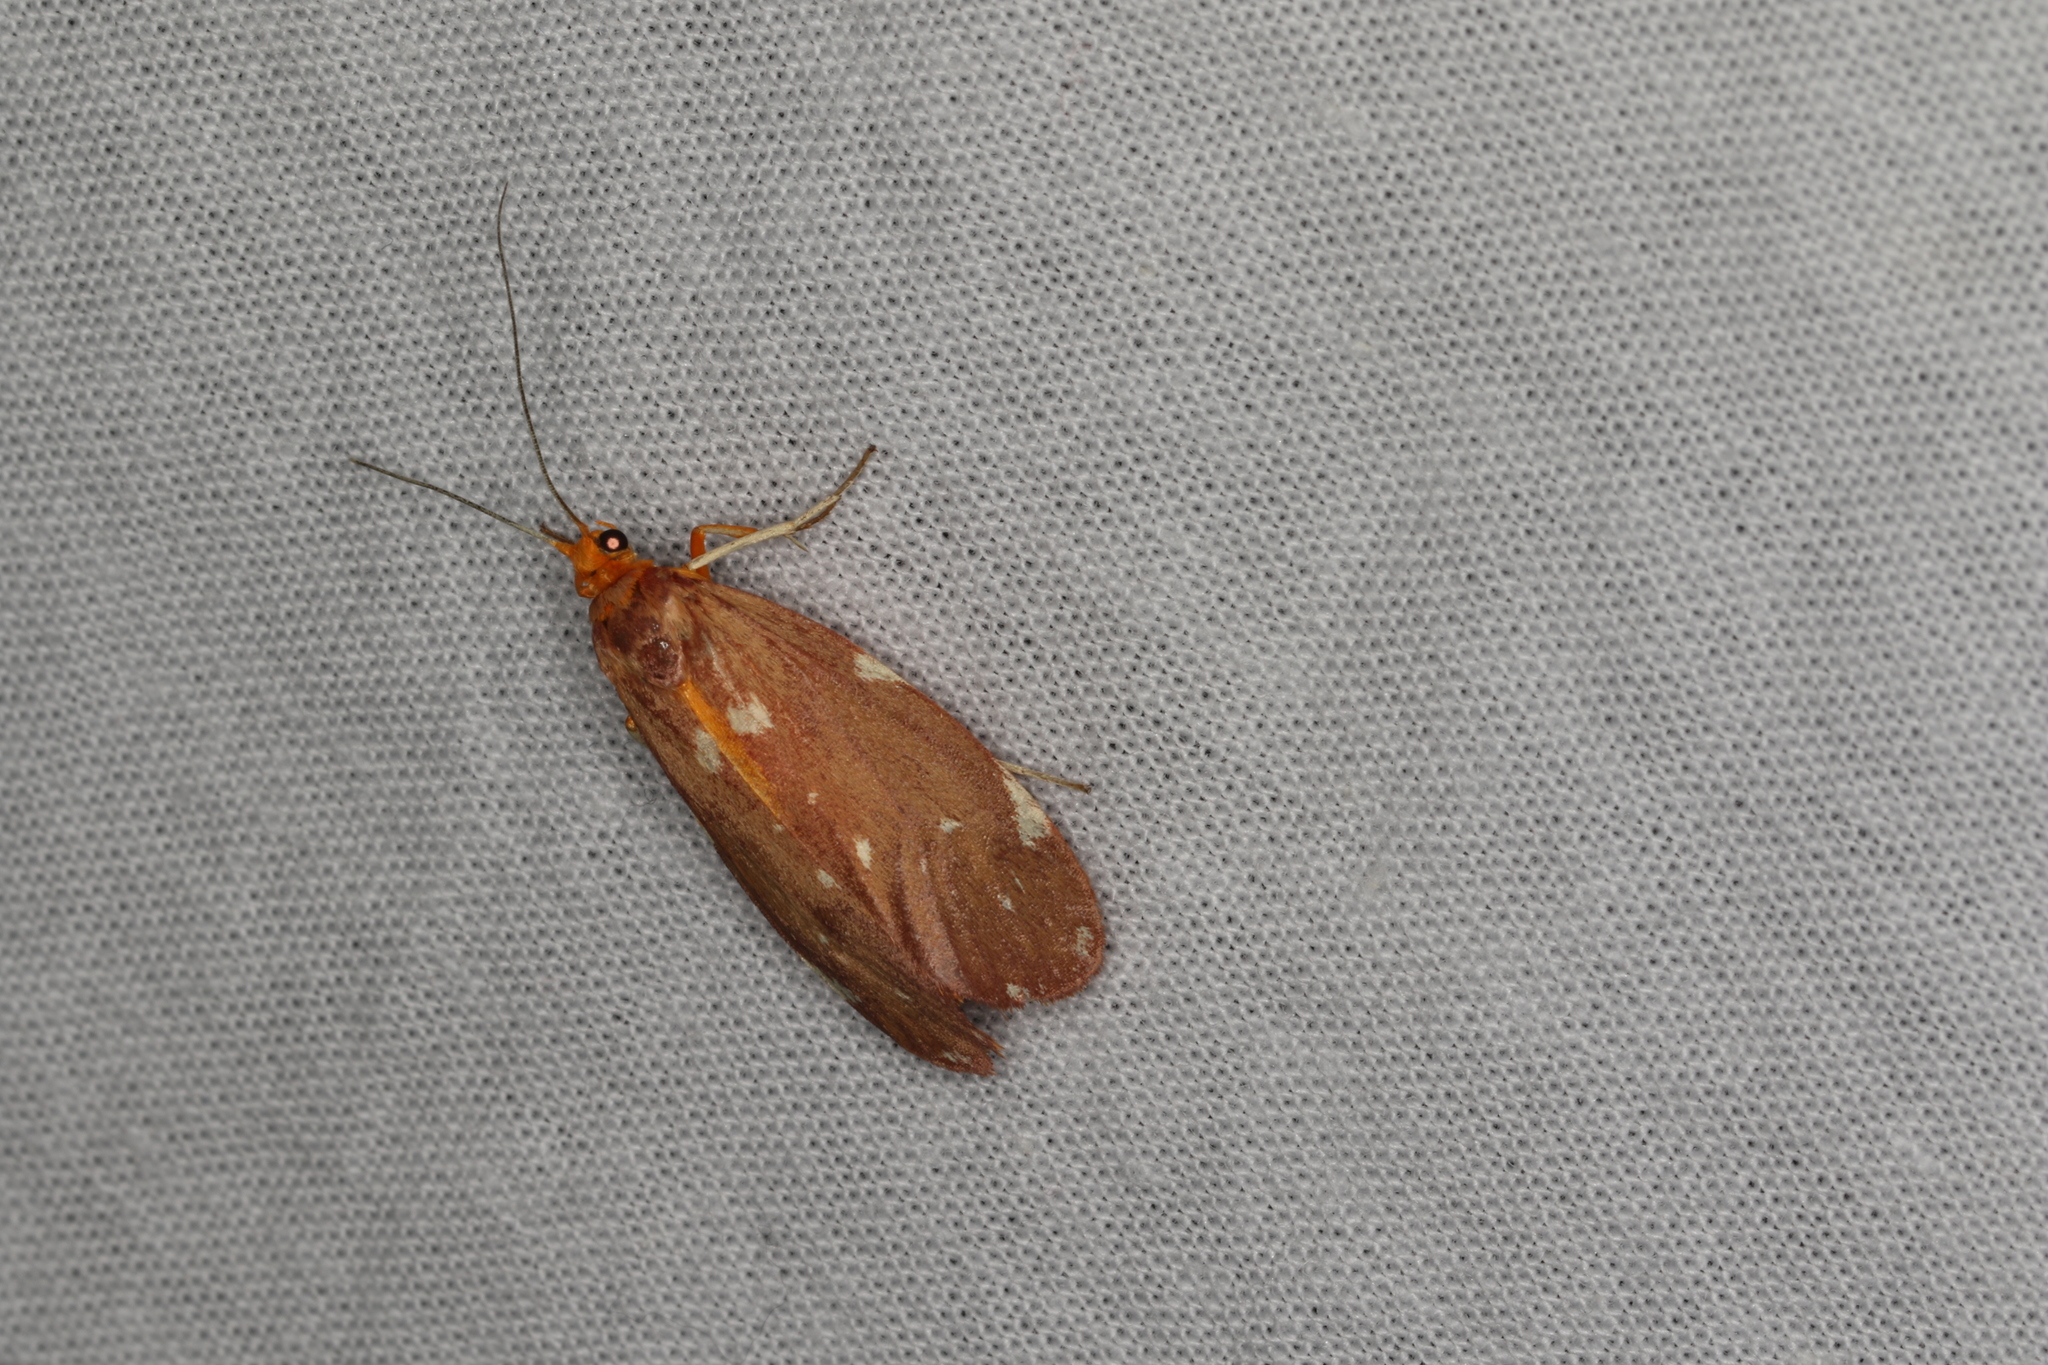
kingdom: Animalia
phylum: Arthropoda
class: Insecta
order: Lepidoptera
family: Lacturidae
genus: Lactura
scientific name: Lactura caminaea
